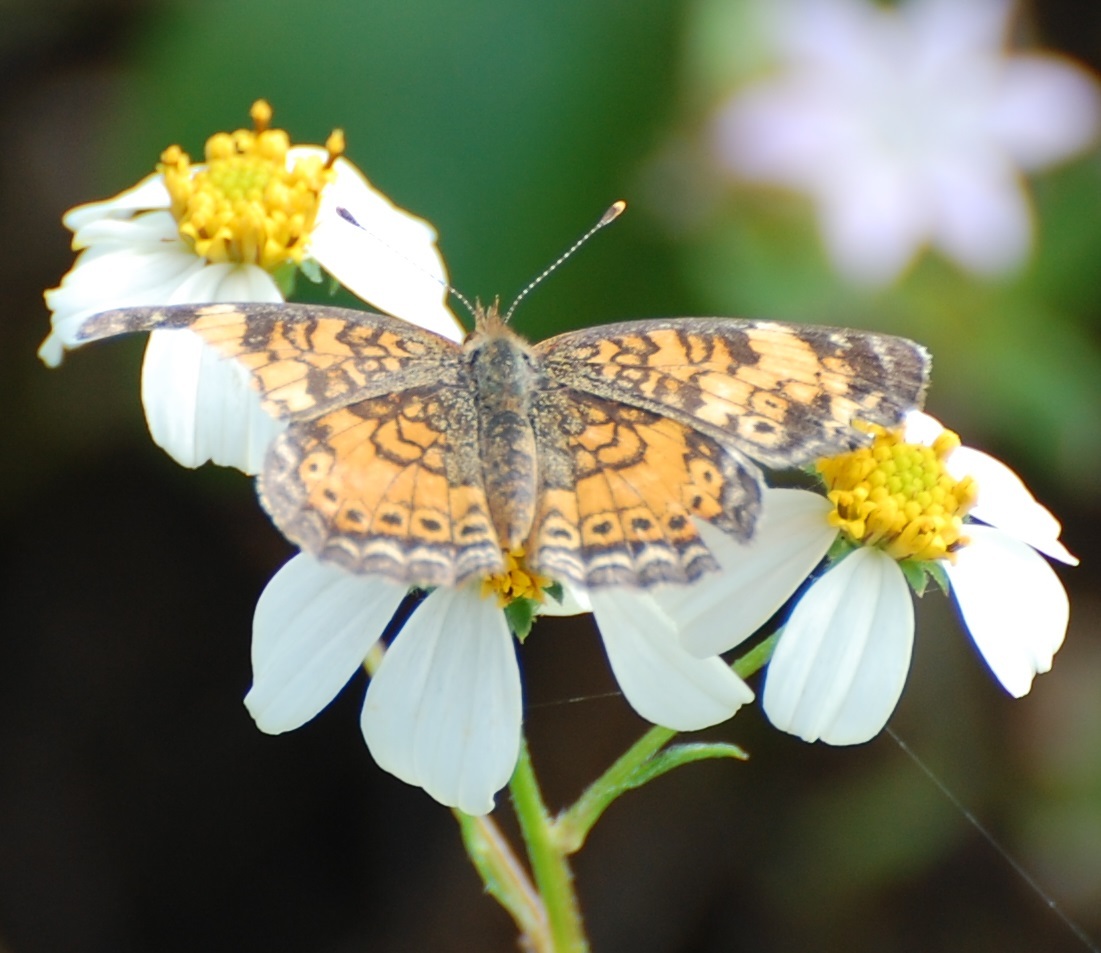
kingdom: Animalia
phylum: Arthropoda
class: Insecta
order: Lepidoptera
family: Nymphalidae
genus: Phyciodes
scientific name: Phyciodes tharos
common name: Pearl crescent
